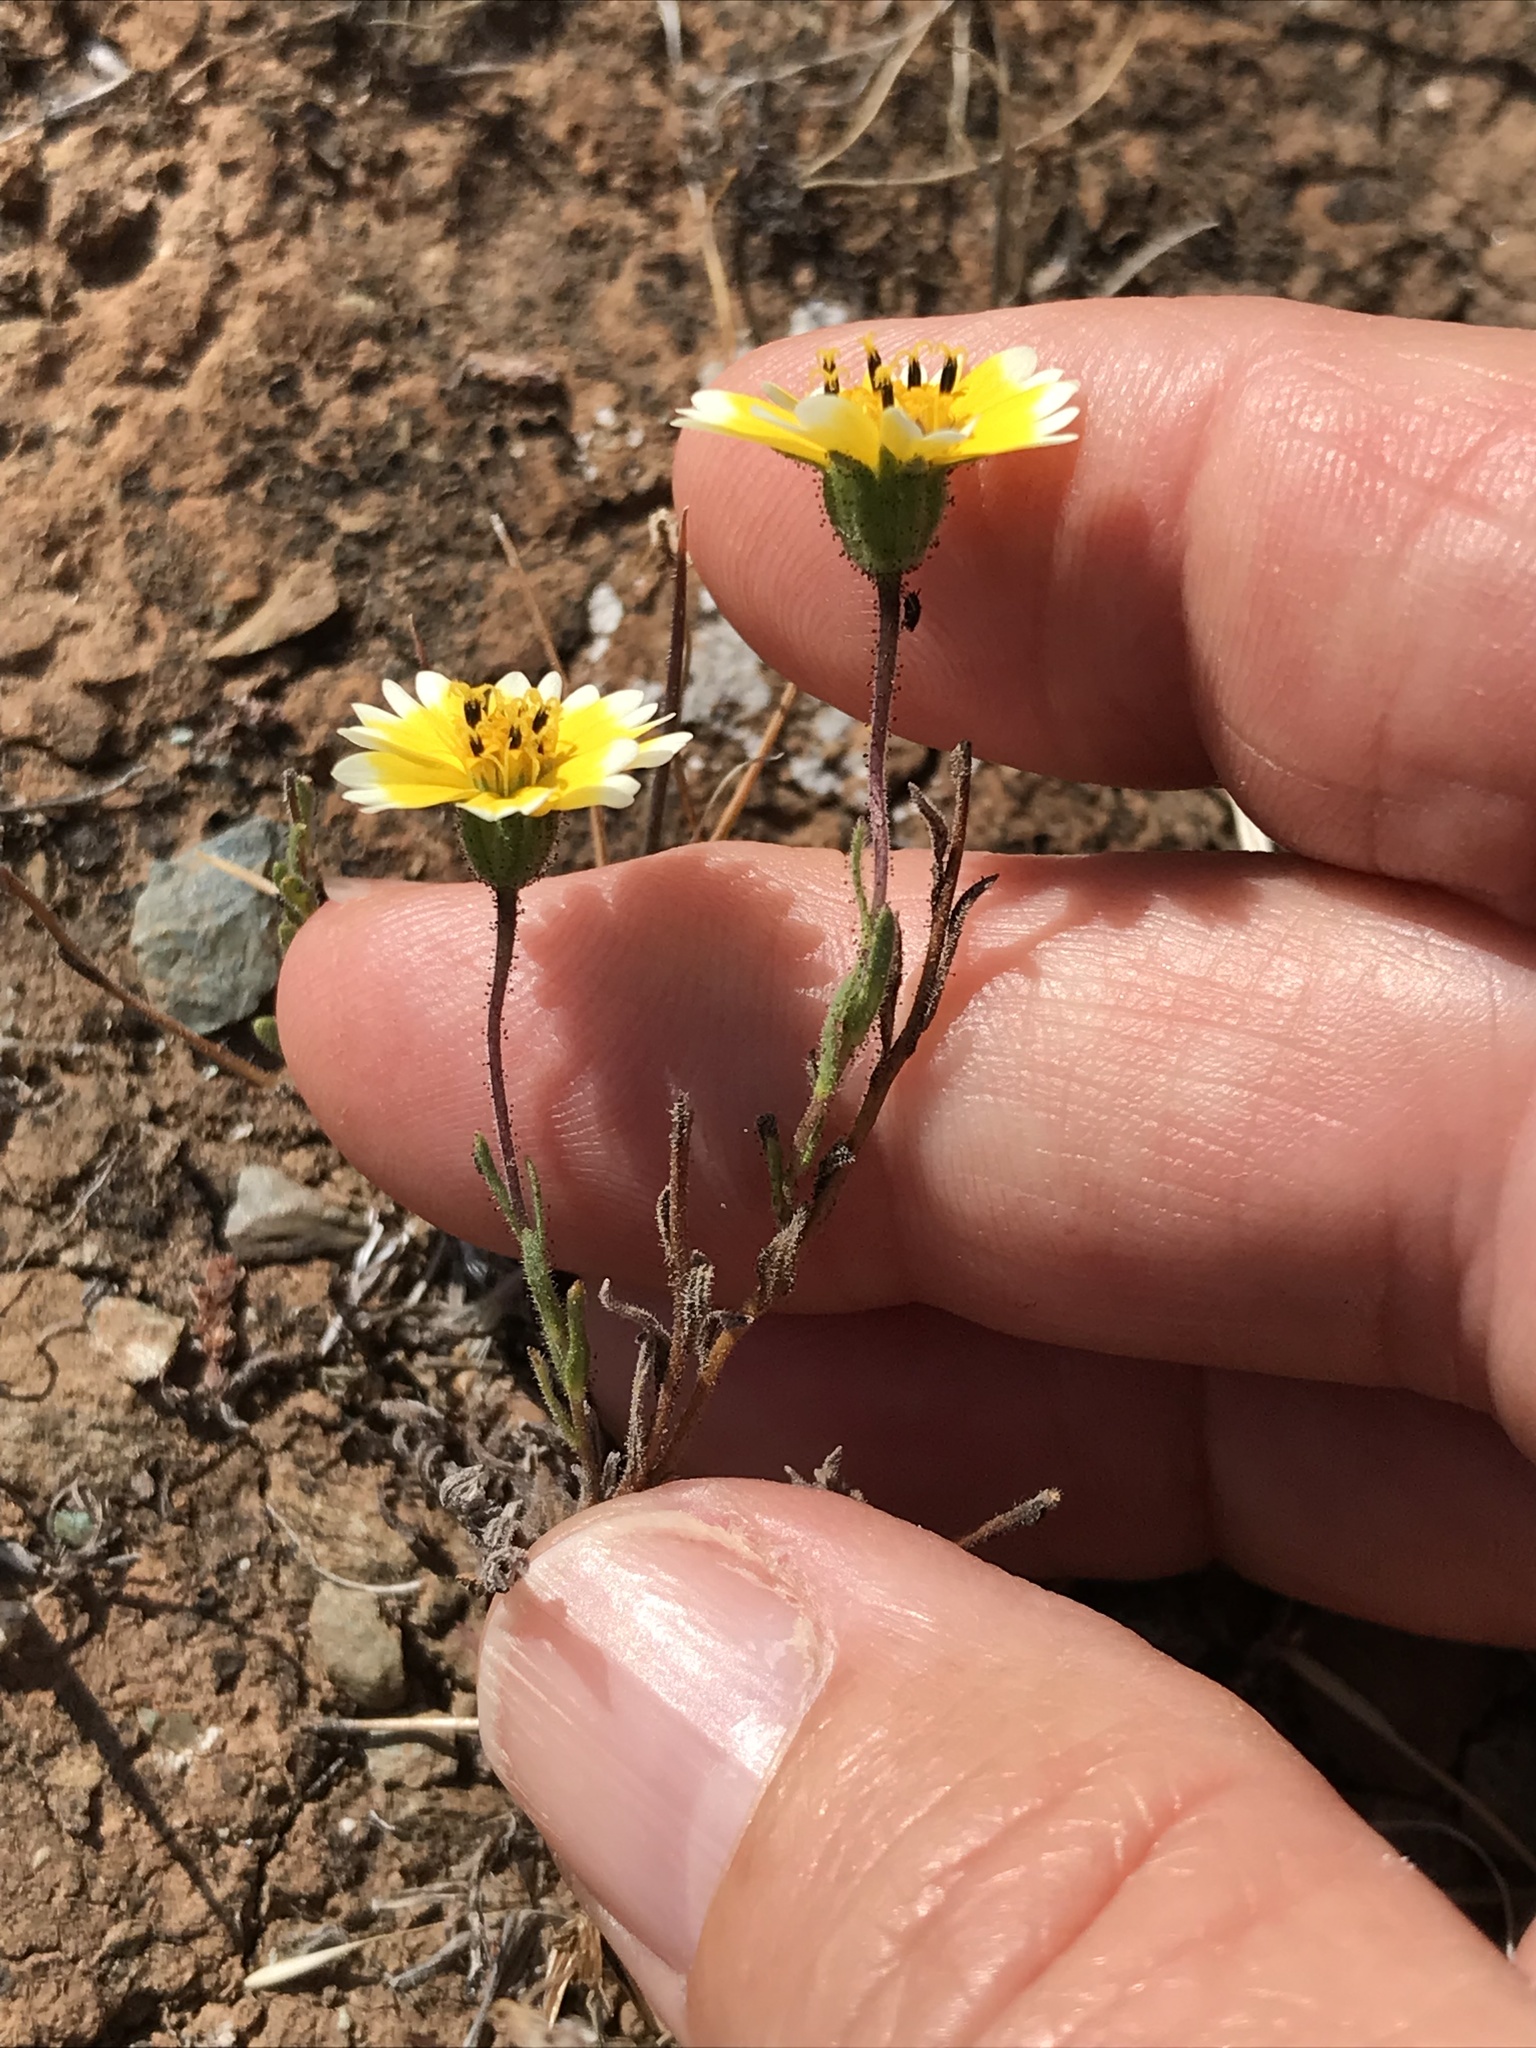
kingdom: Plantae
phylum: Tracheophyta
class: Magnoliopsida
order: Asterales
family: Asteraceae
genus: Layia
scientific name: Layia platyglossa
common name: Tidy-tips
